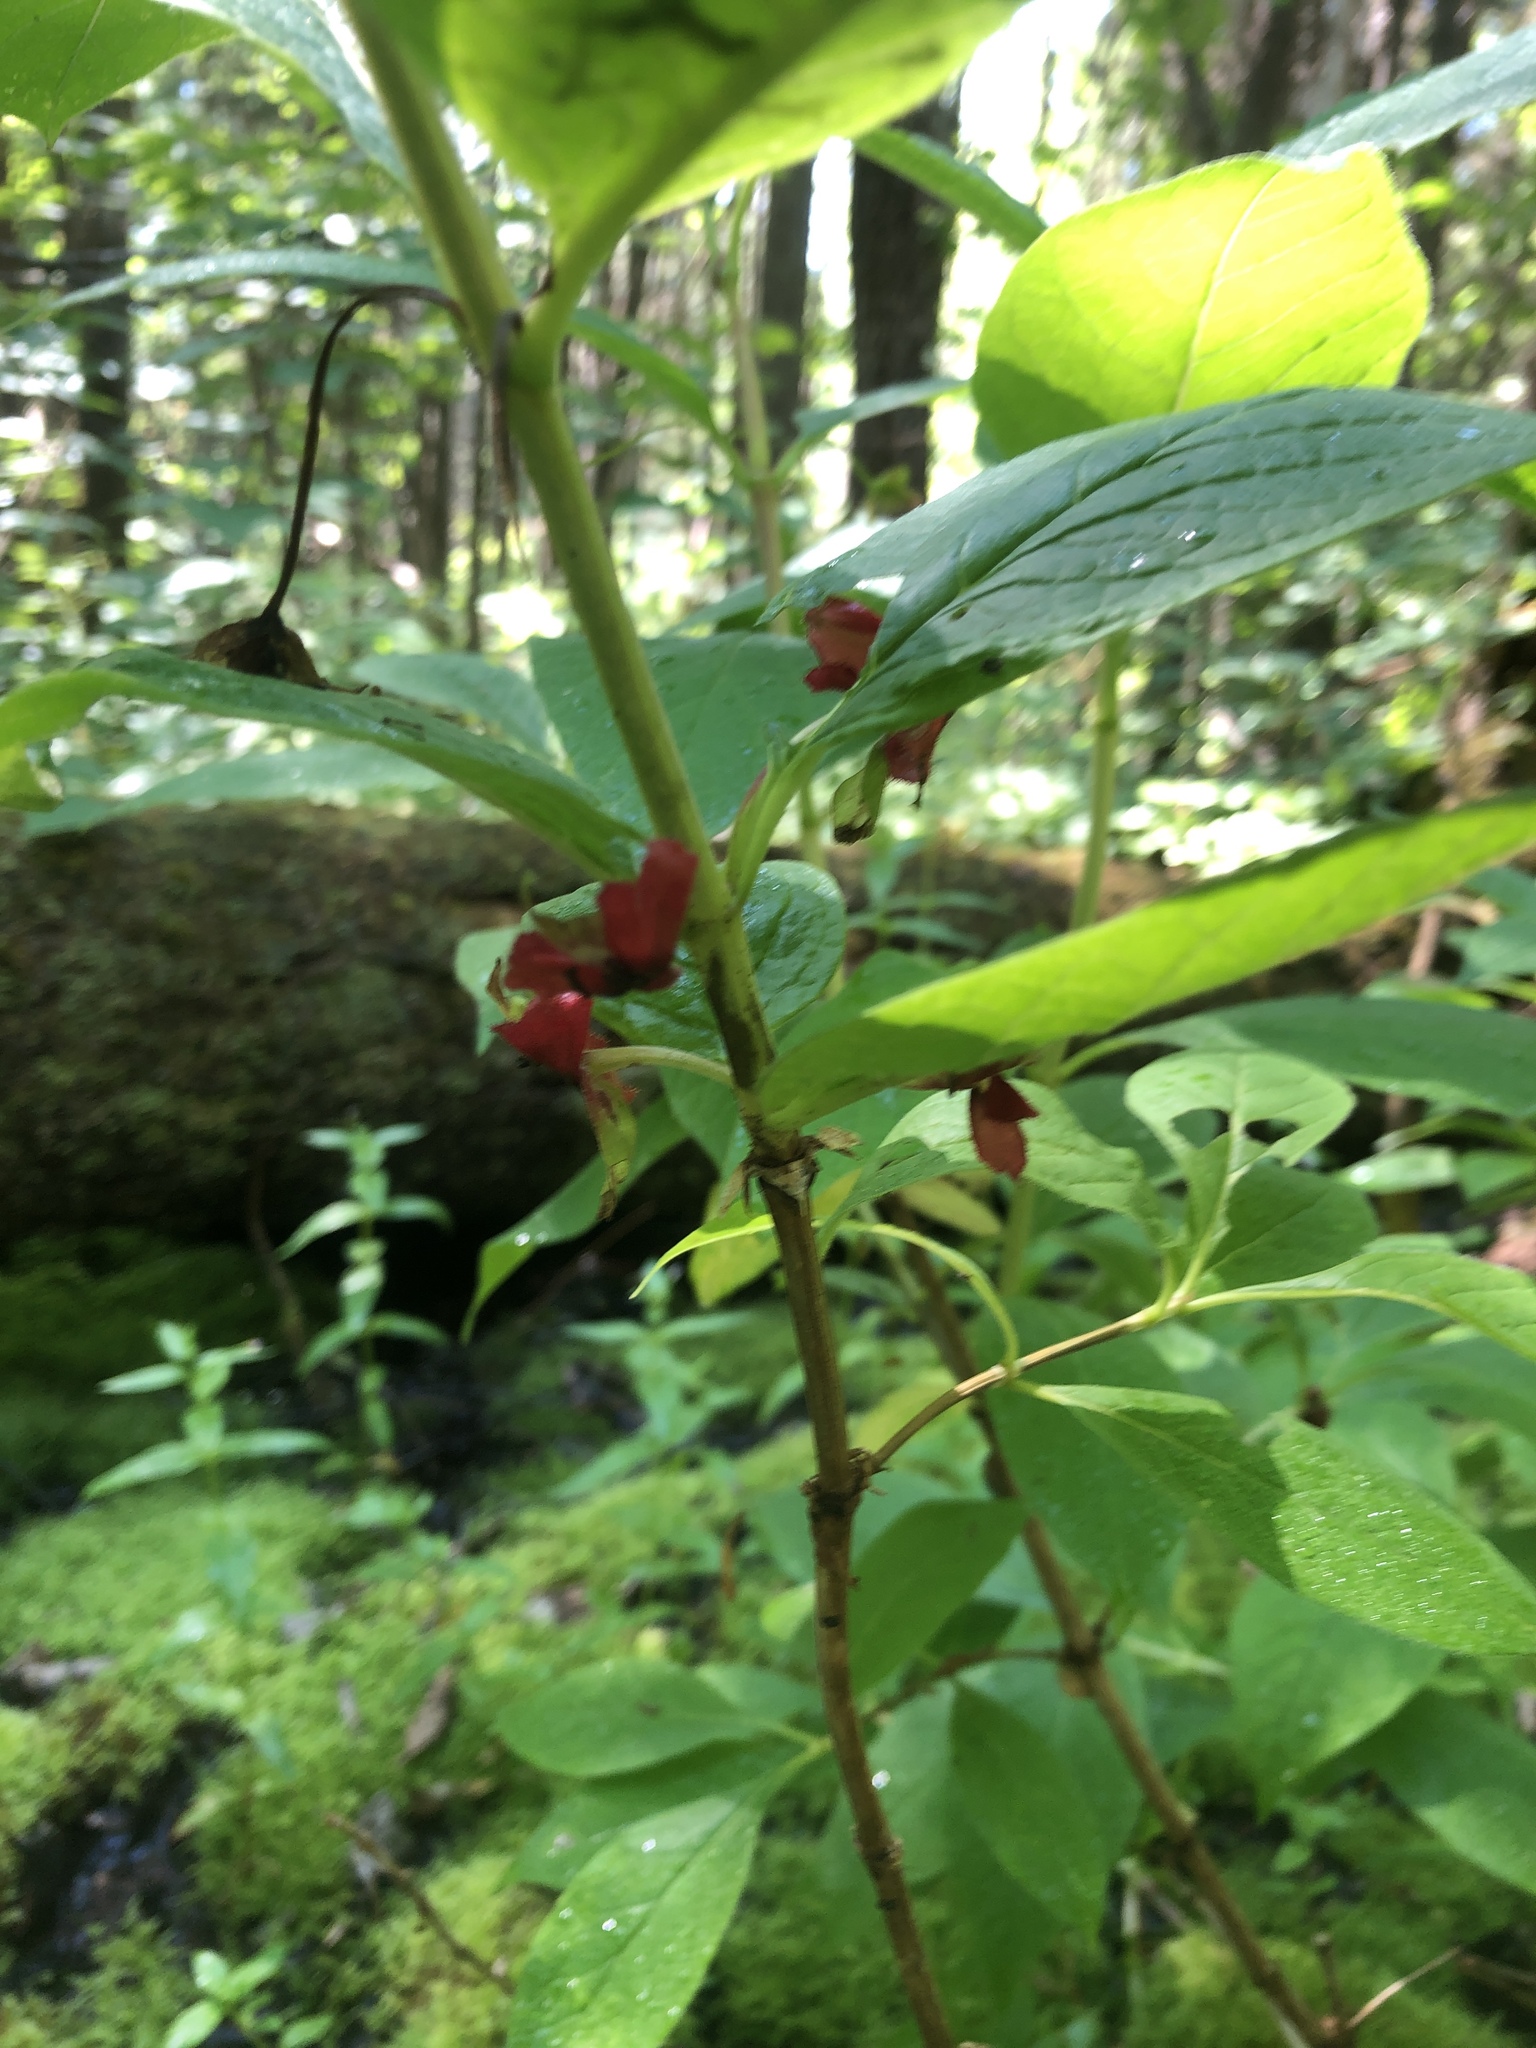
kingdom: Plantae
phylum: Tracheophyta
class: Magnoliopsida
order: Dipsacales
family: Caprifoliaceae
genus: Lonicera
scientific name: Lonicera involucrata
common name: Californian honeysuckle
